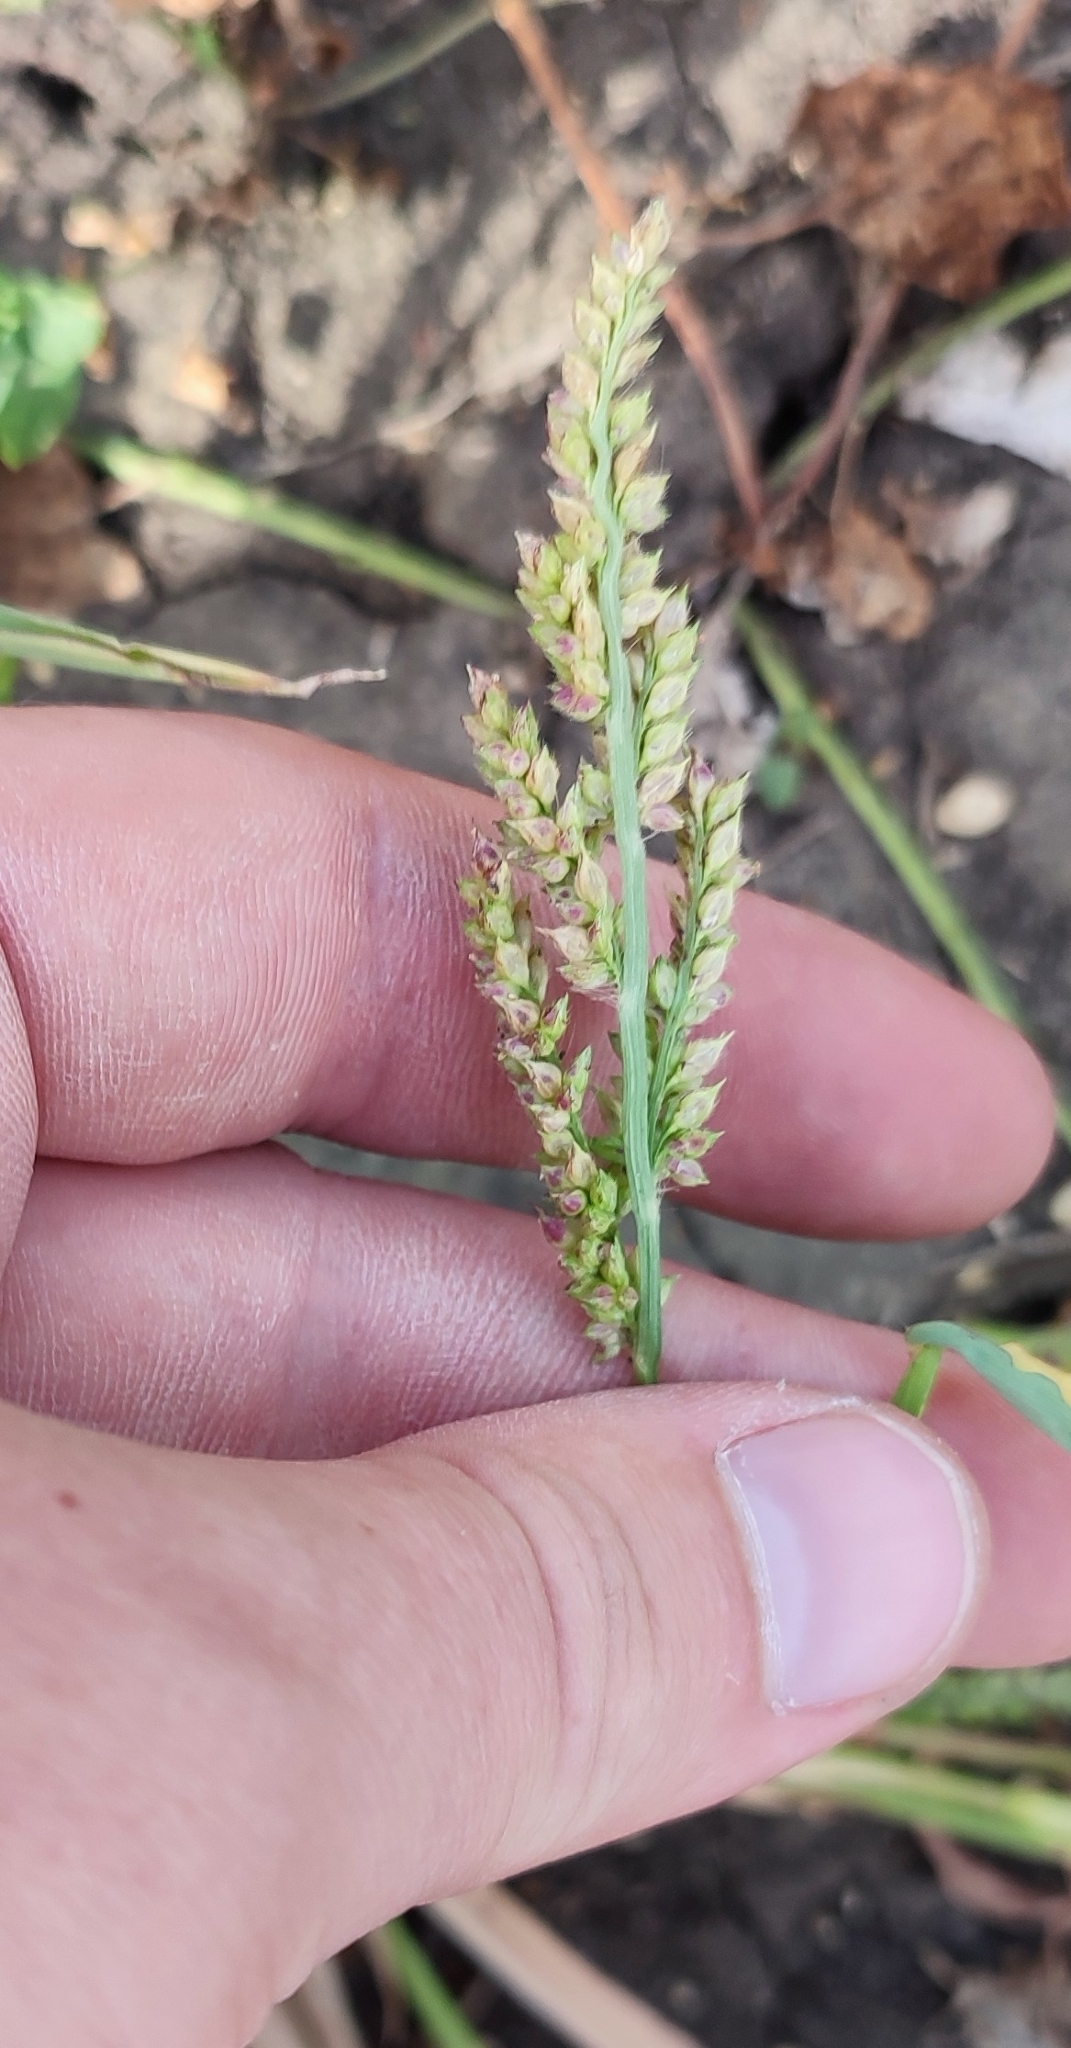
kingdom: Plantae
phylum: Tracheophyta
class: Liliopsida
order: Poales
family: Poaceae
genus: Echinochloa
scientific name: Echinochloa crus-galli
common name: Cockspur
